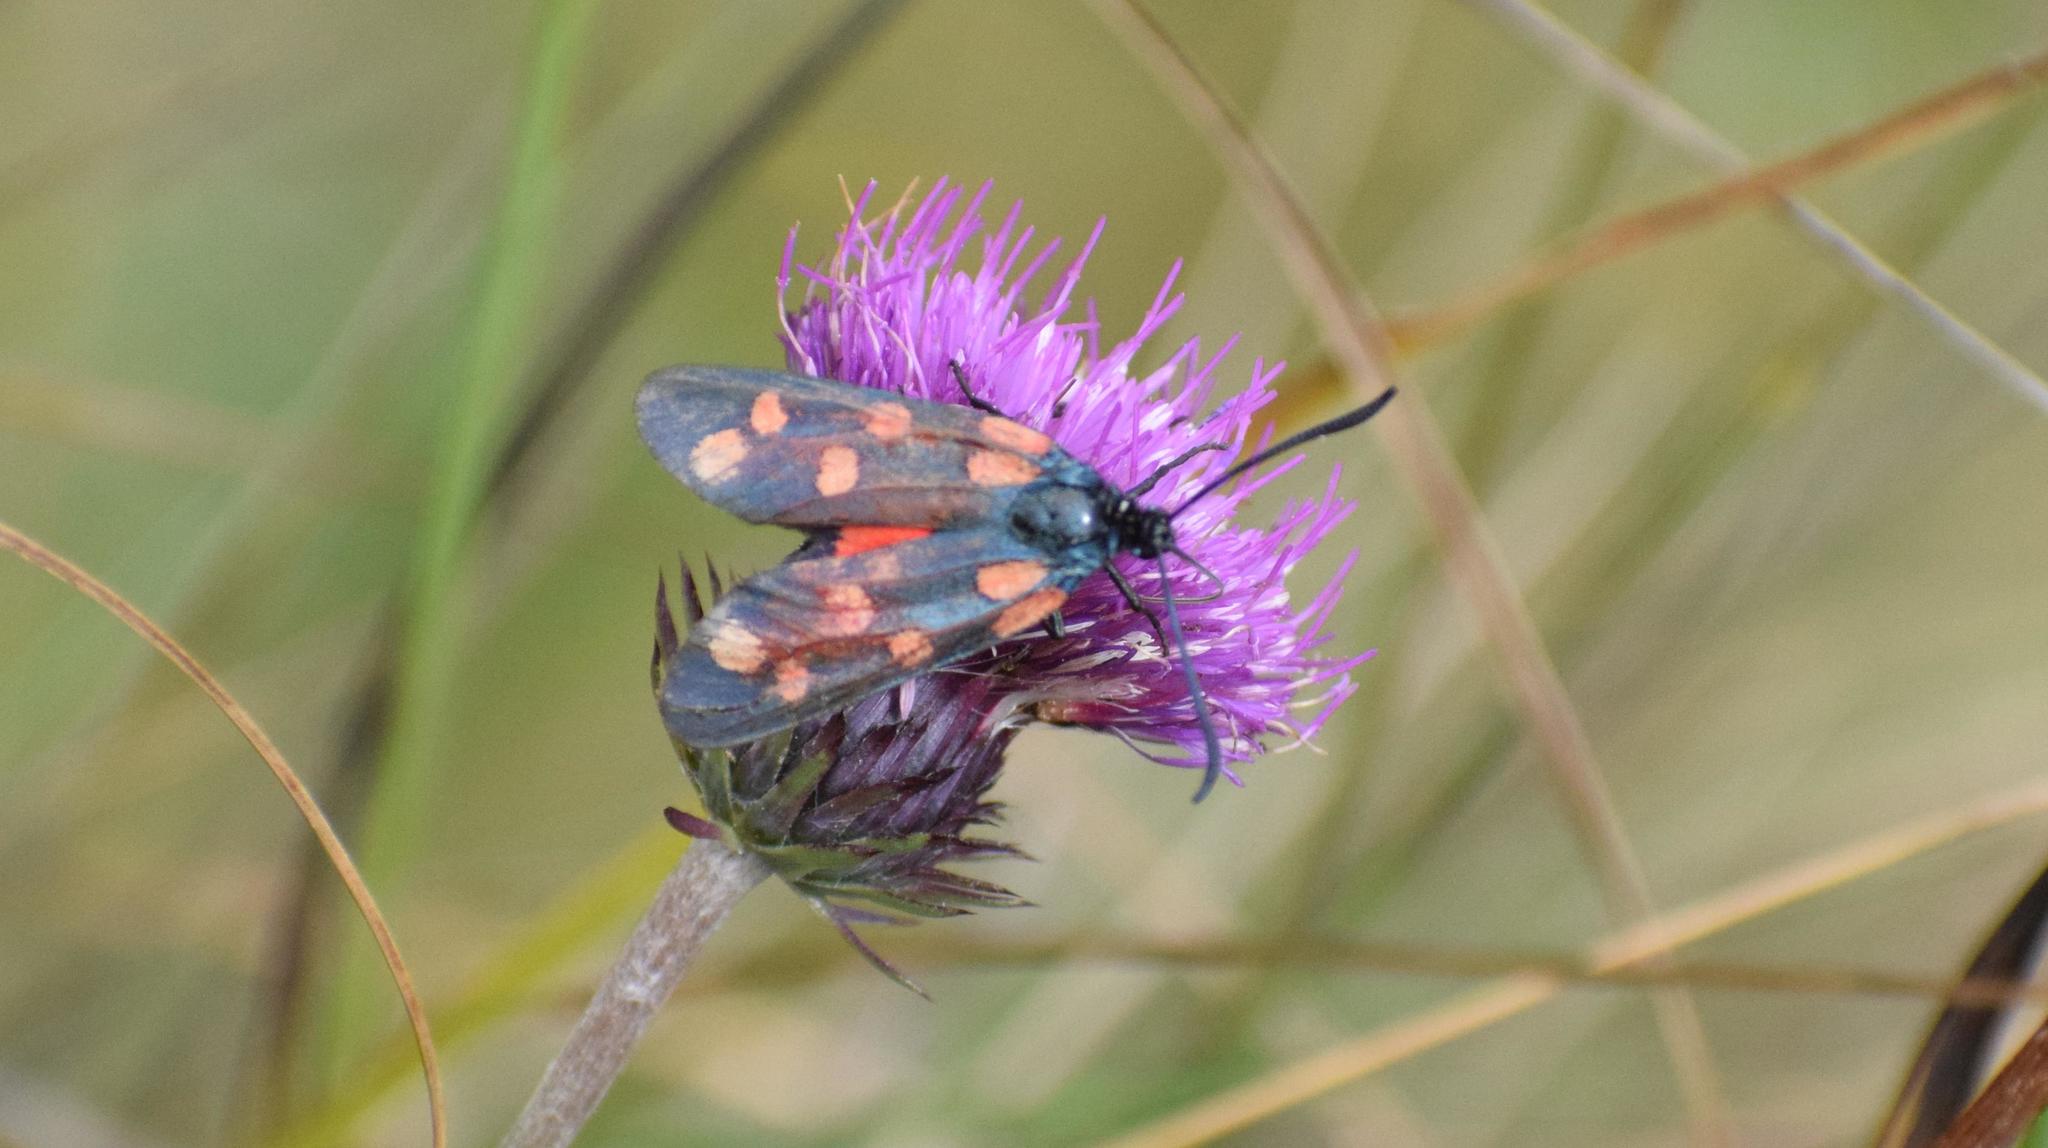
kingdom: Animalia
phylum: Arthropoda
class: Insecta
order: Lepidoptera
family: Zygaenidae
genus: Zygaena
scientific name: Zygaena transalpina
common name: Southern six spot burnet
